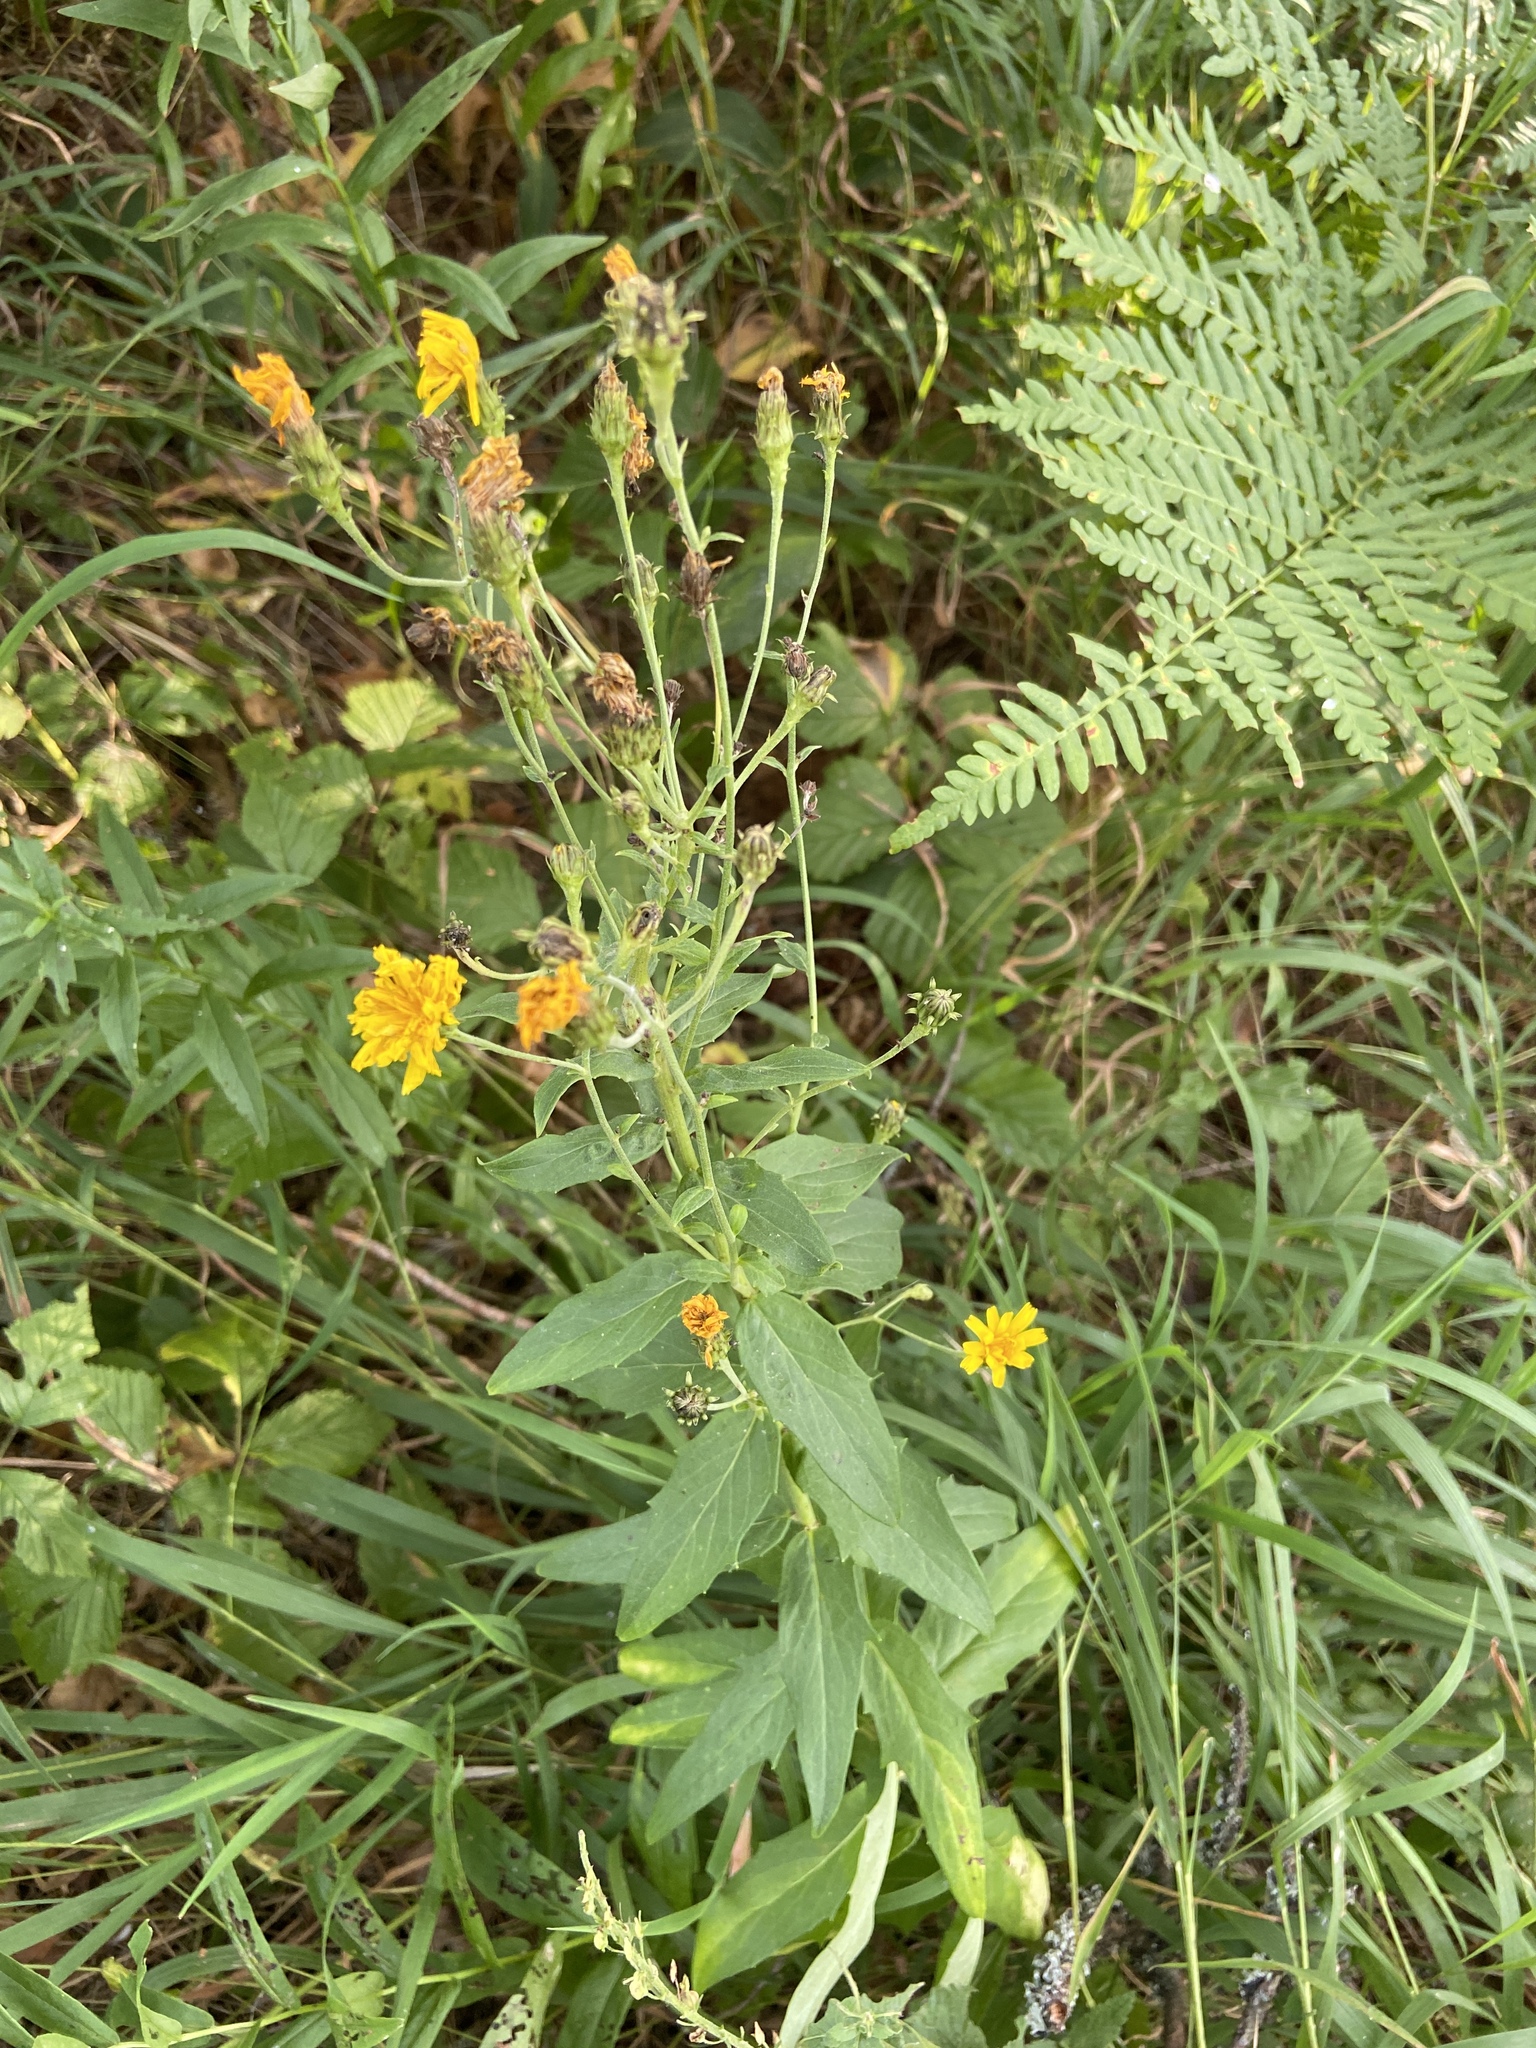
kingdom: Plantae
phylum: Tracheophyta
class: Magnoliopsida
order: Asterales
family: Asteraceae
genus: Hieracium
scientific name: Hieracium umbellatum
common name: Northern hawkweed
